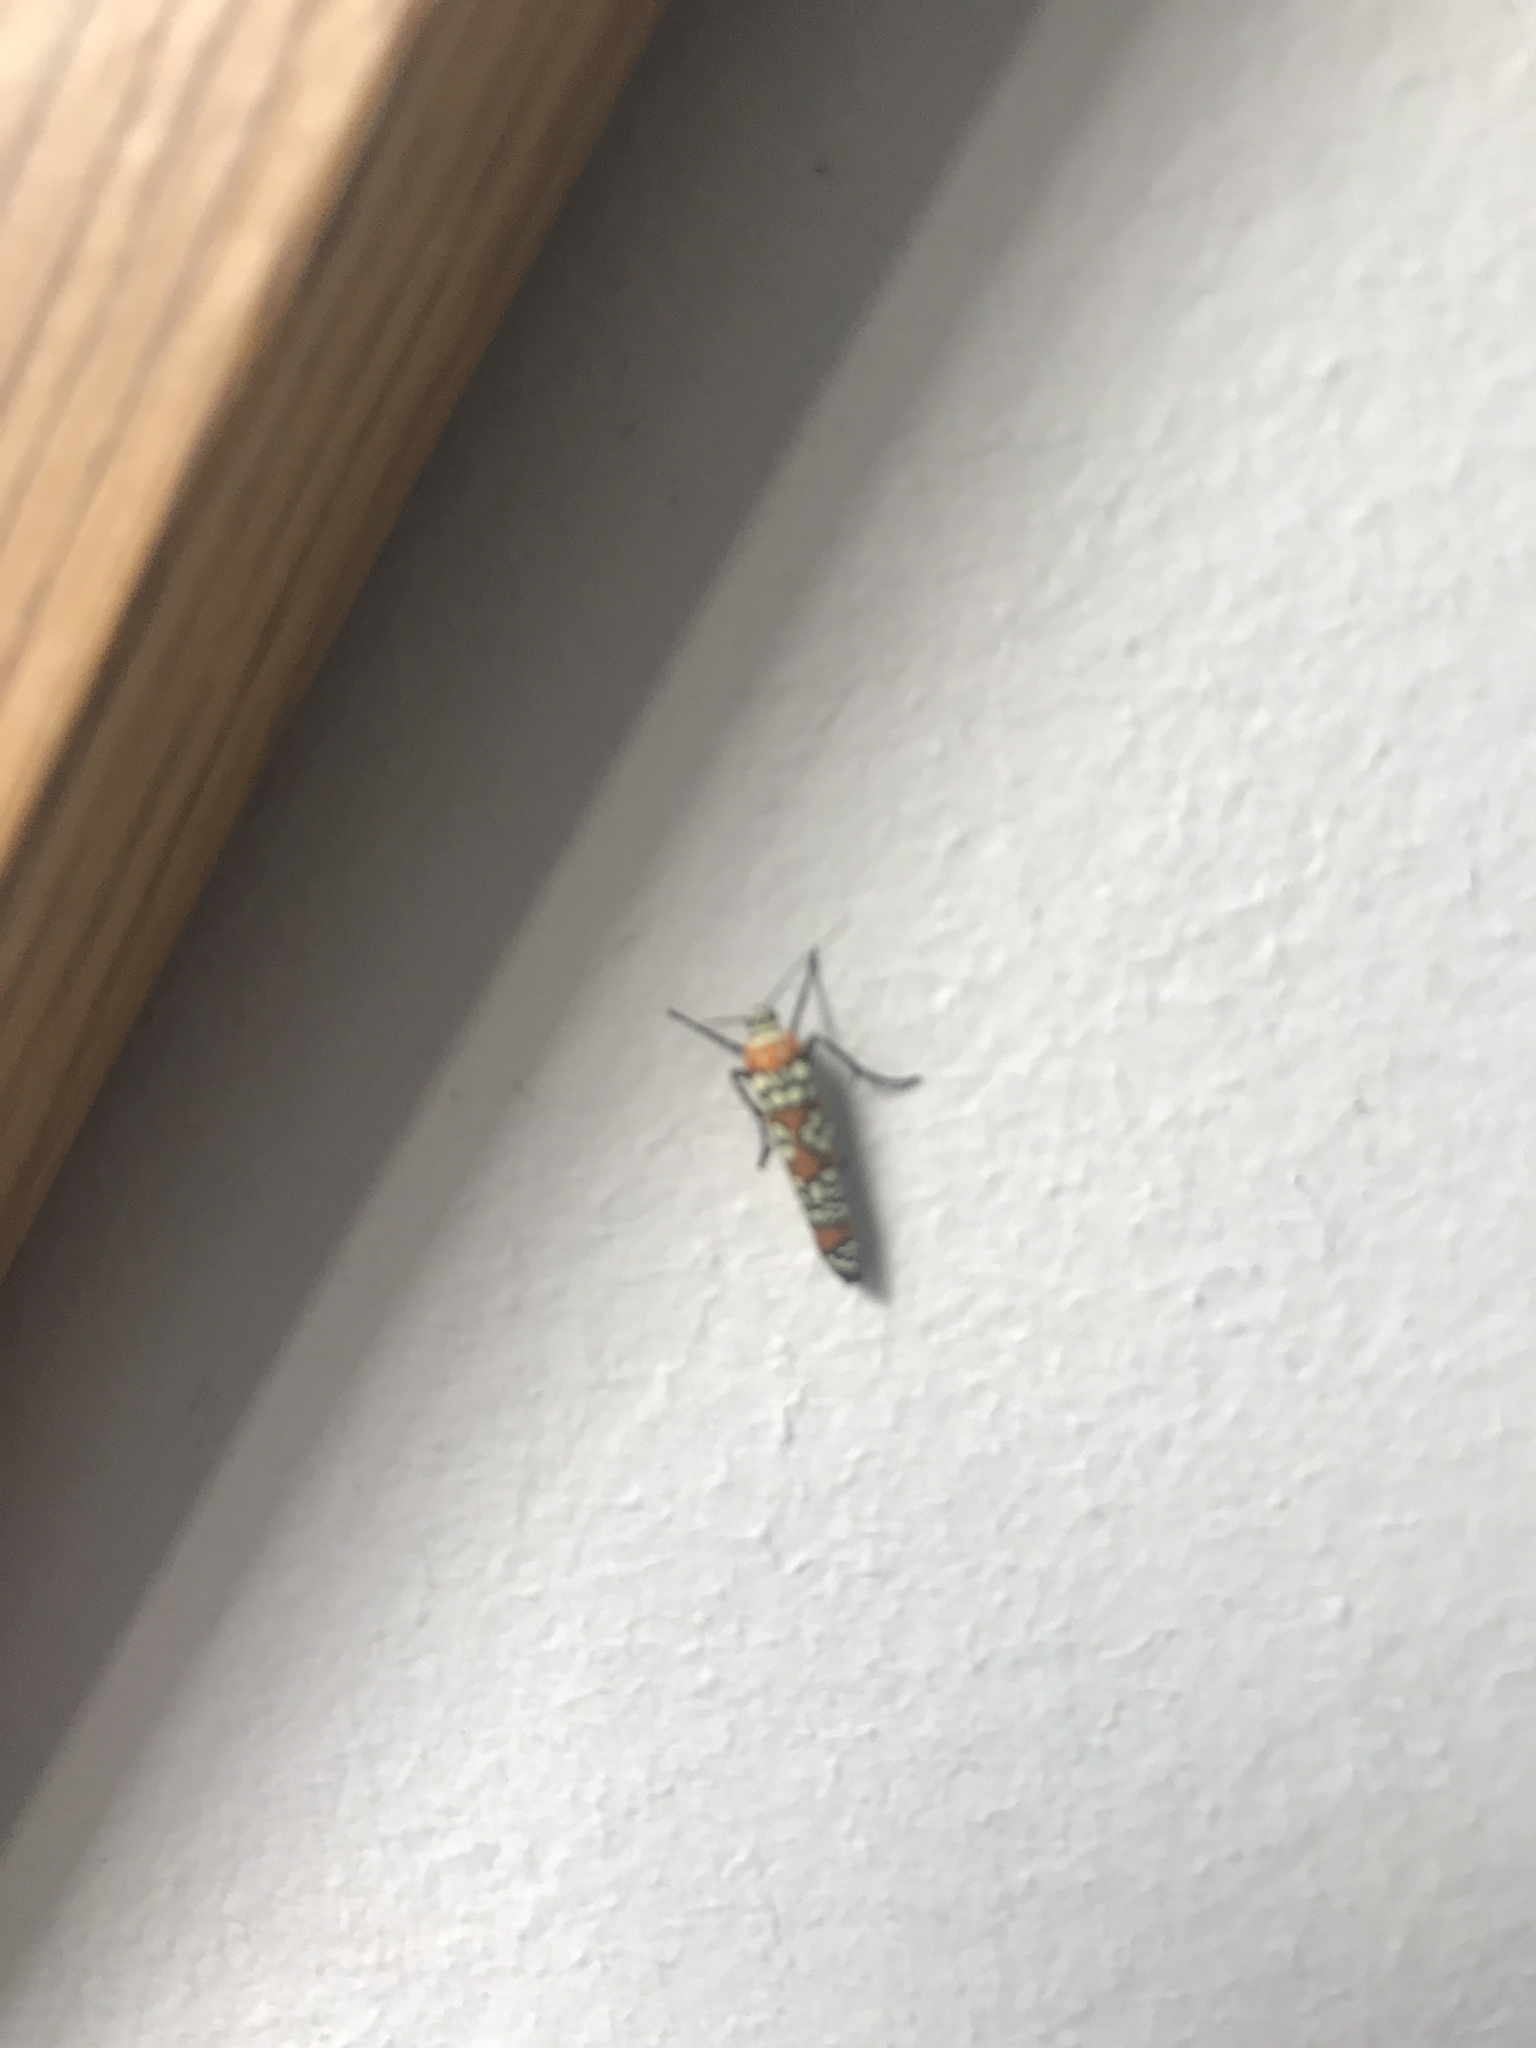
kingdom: Animalia
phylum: Arthropoda
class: Insecta
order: Lepidoptera
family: Attevidae
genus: Atteva
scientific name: Atteva punctella
